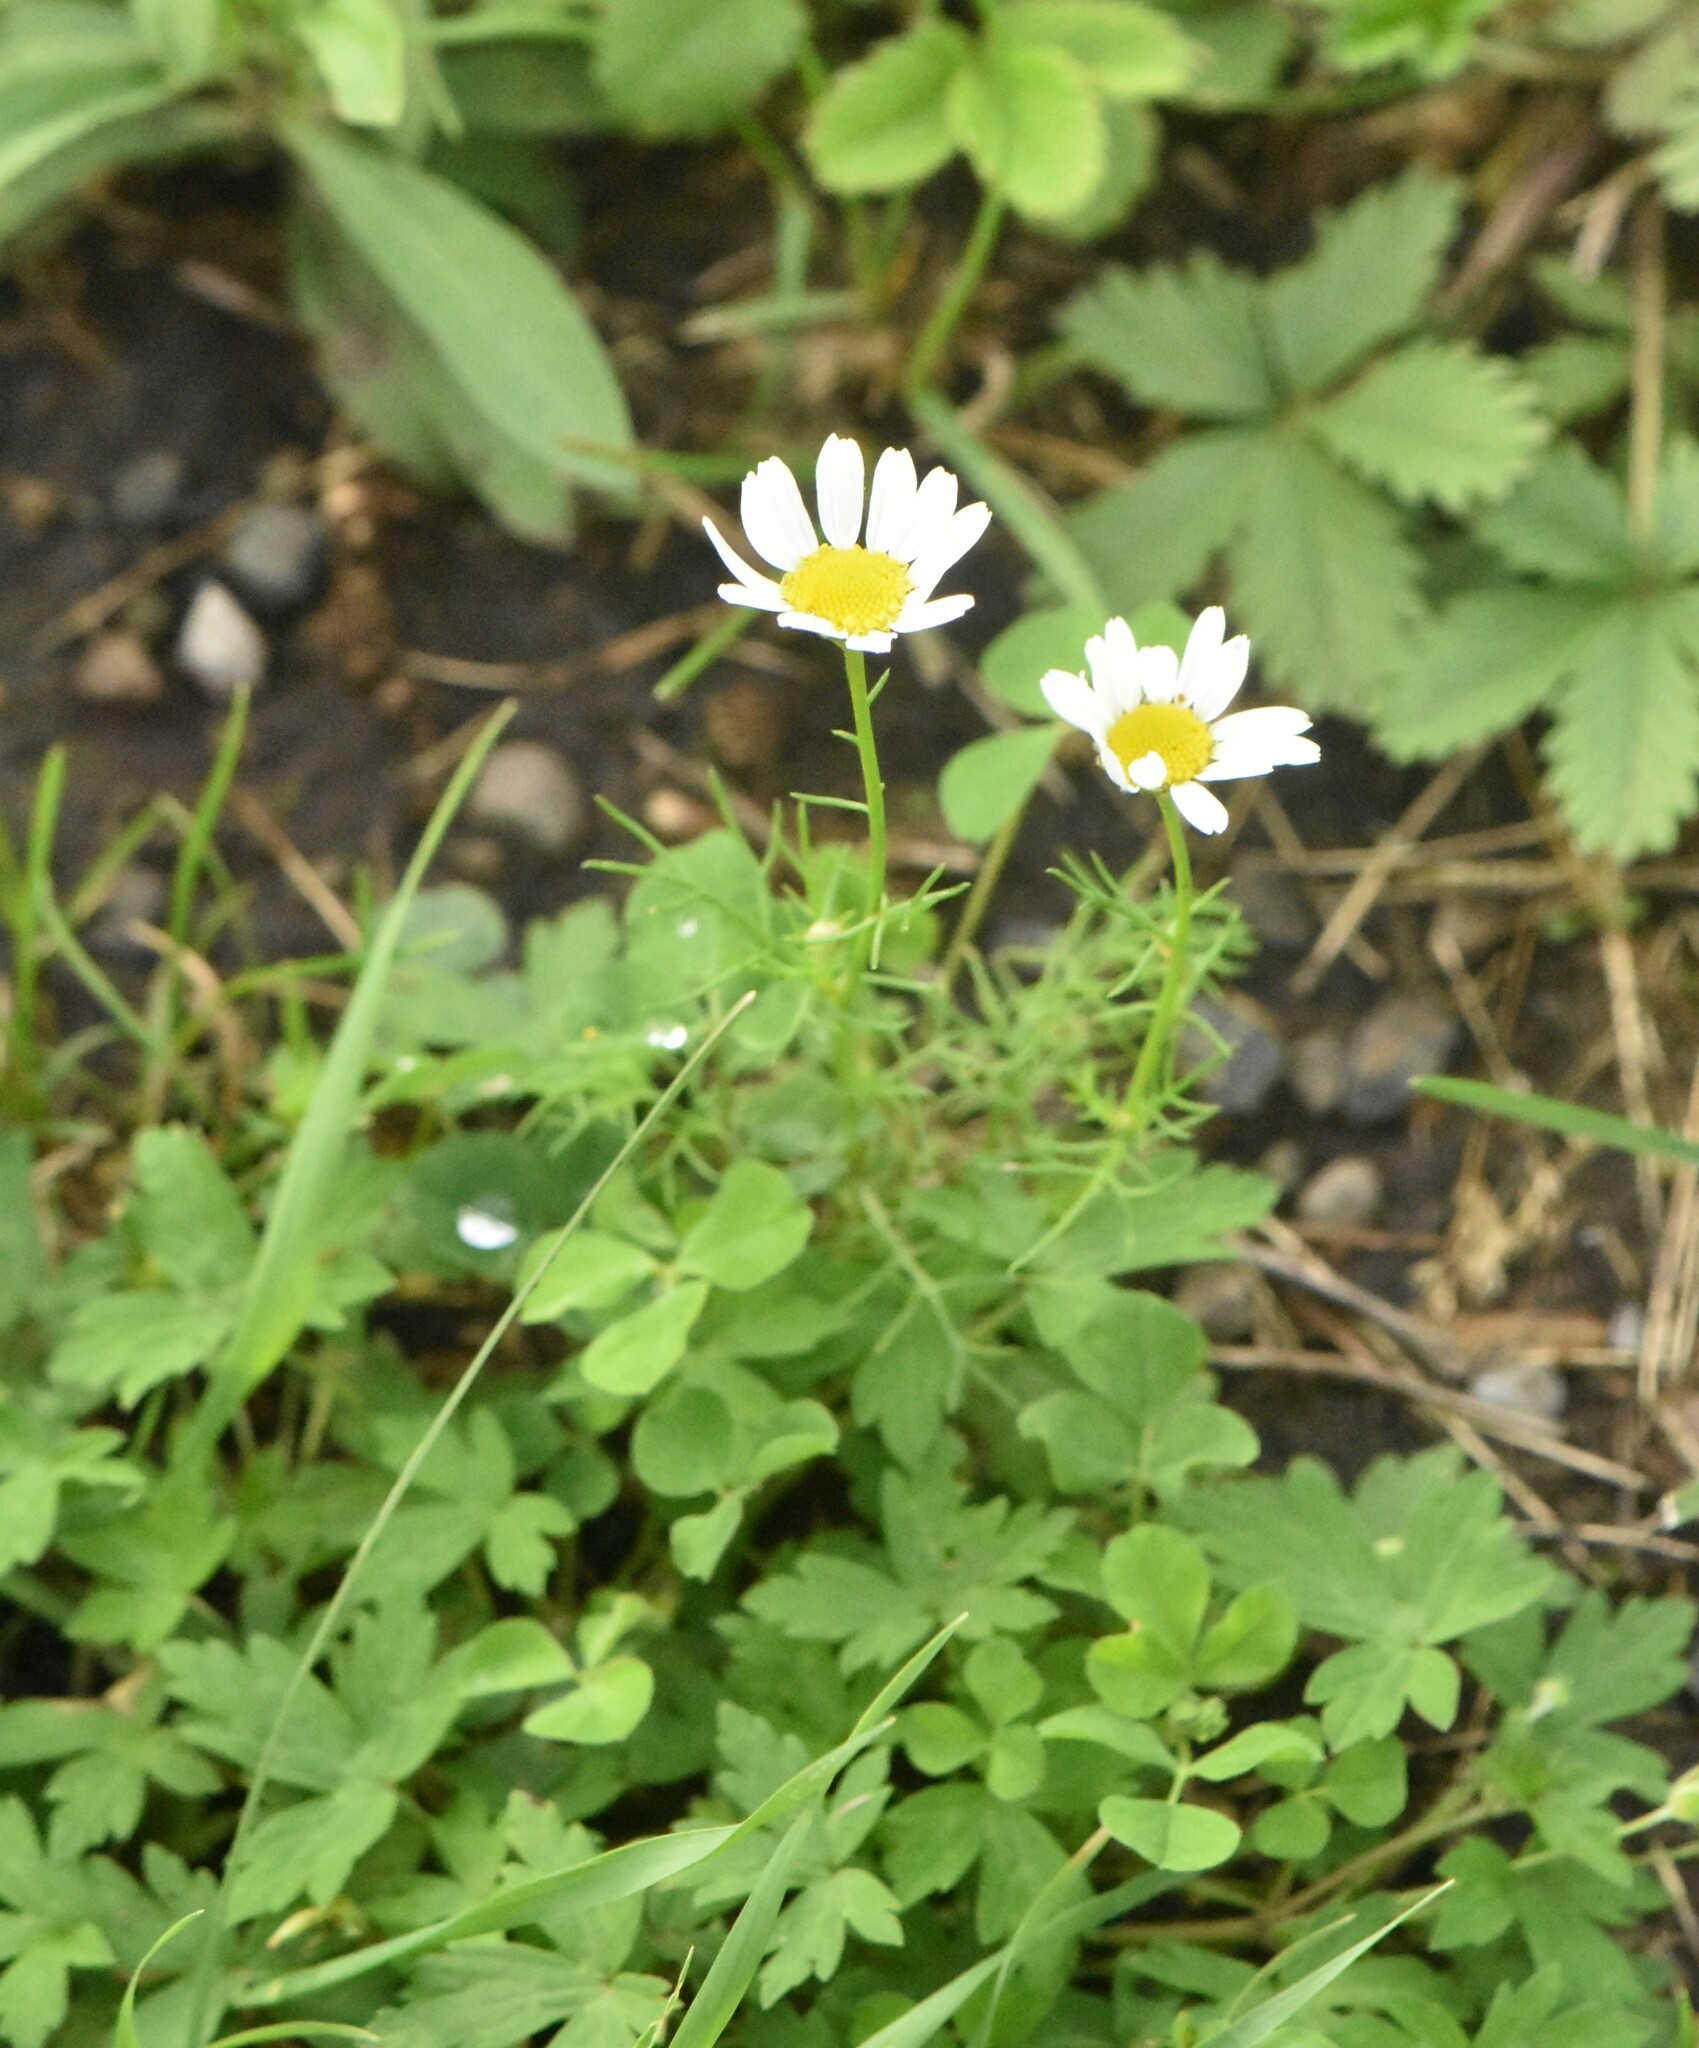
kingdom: Plantae
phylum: Tracheophyta
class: Magnoliopsida
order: Asterales
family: Asteraceae
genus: Tripleurospermum
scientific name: Tripleurospermum inodorum
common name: Scentless mayweed
